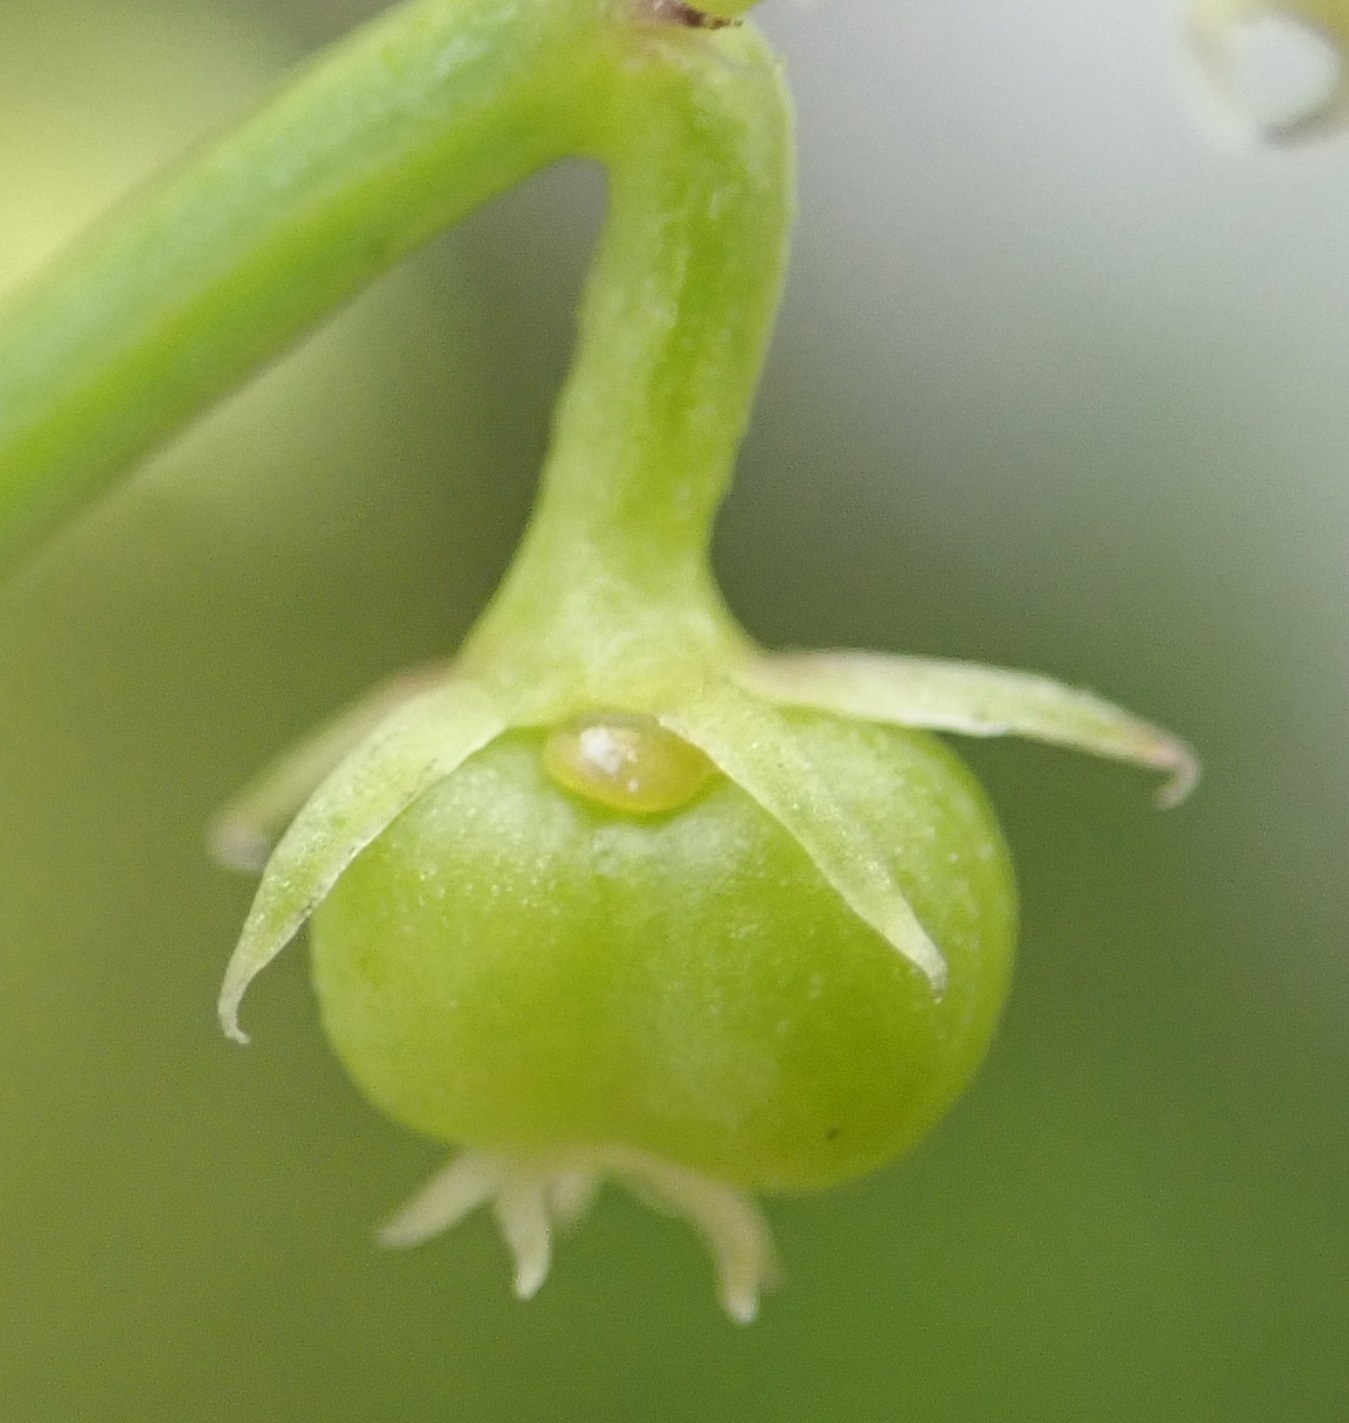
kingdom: Plantae
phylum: Tracheophyta
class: Magnoliopsida
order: Malpighiales
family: Euphorbiaceae
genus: Adenocline
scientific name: Adenocline pauciflora
